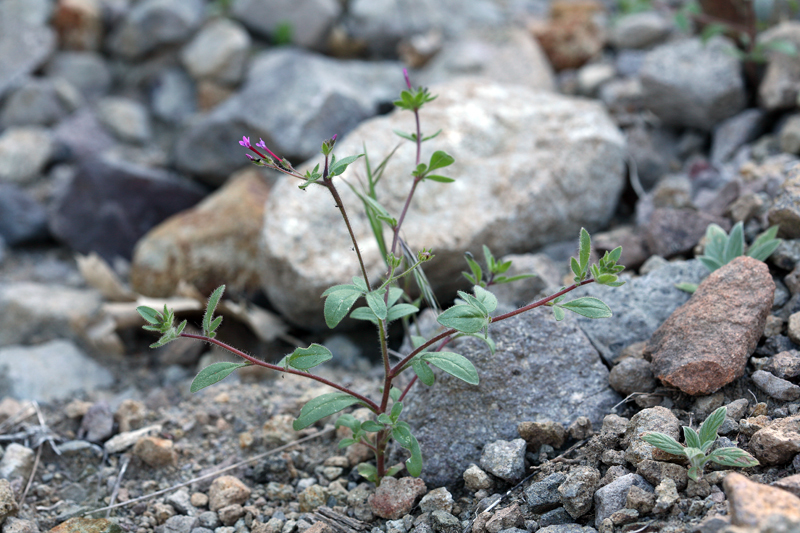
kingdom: Plantae
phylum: Tracheophyta
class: Magnoliopsida
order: Ericales
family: Polemoniaceae
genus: Allophyllum
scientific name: Allophyllum divaricatum
